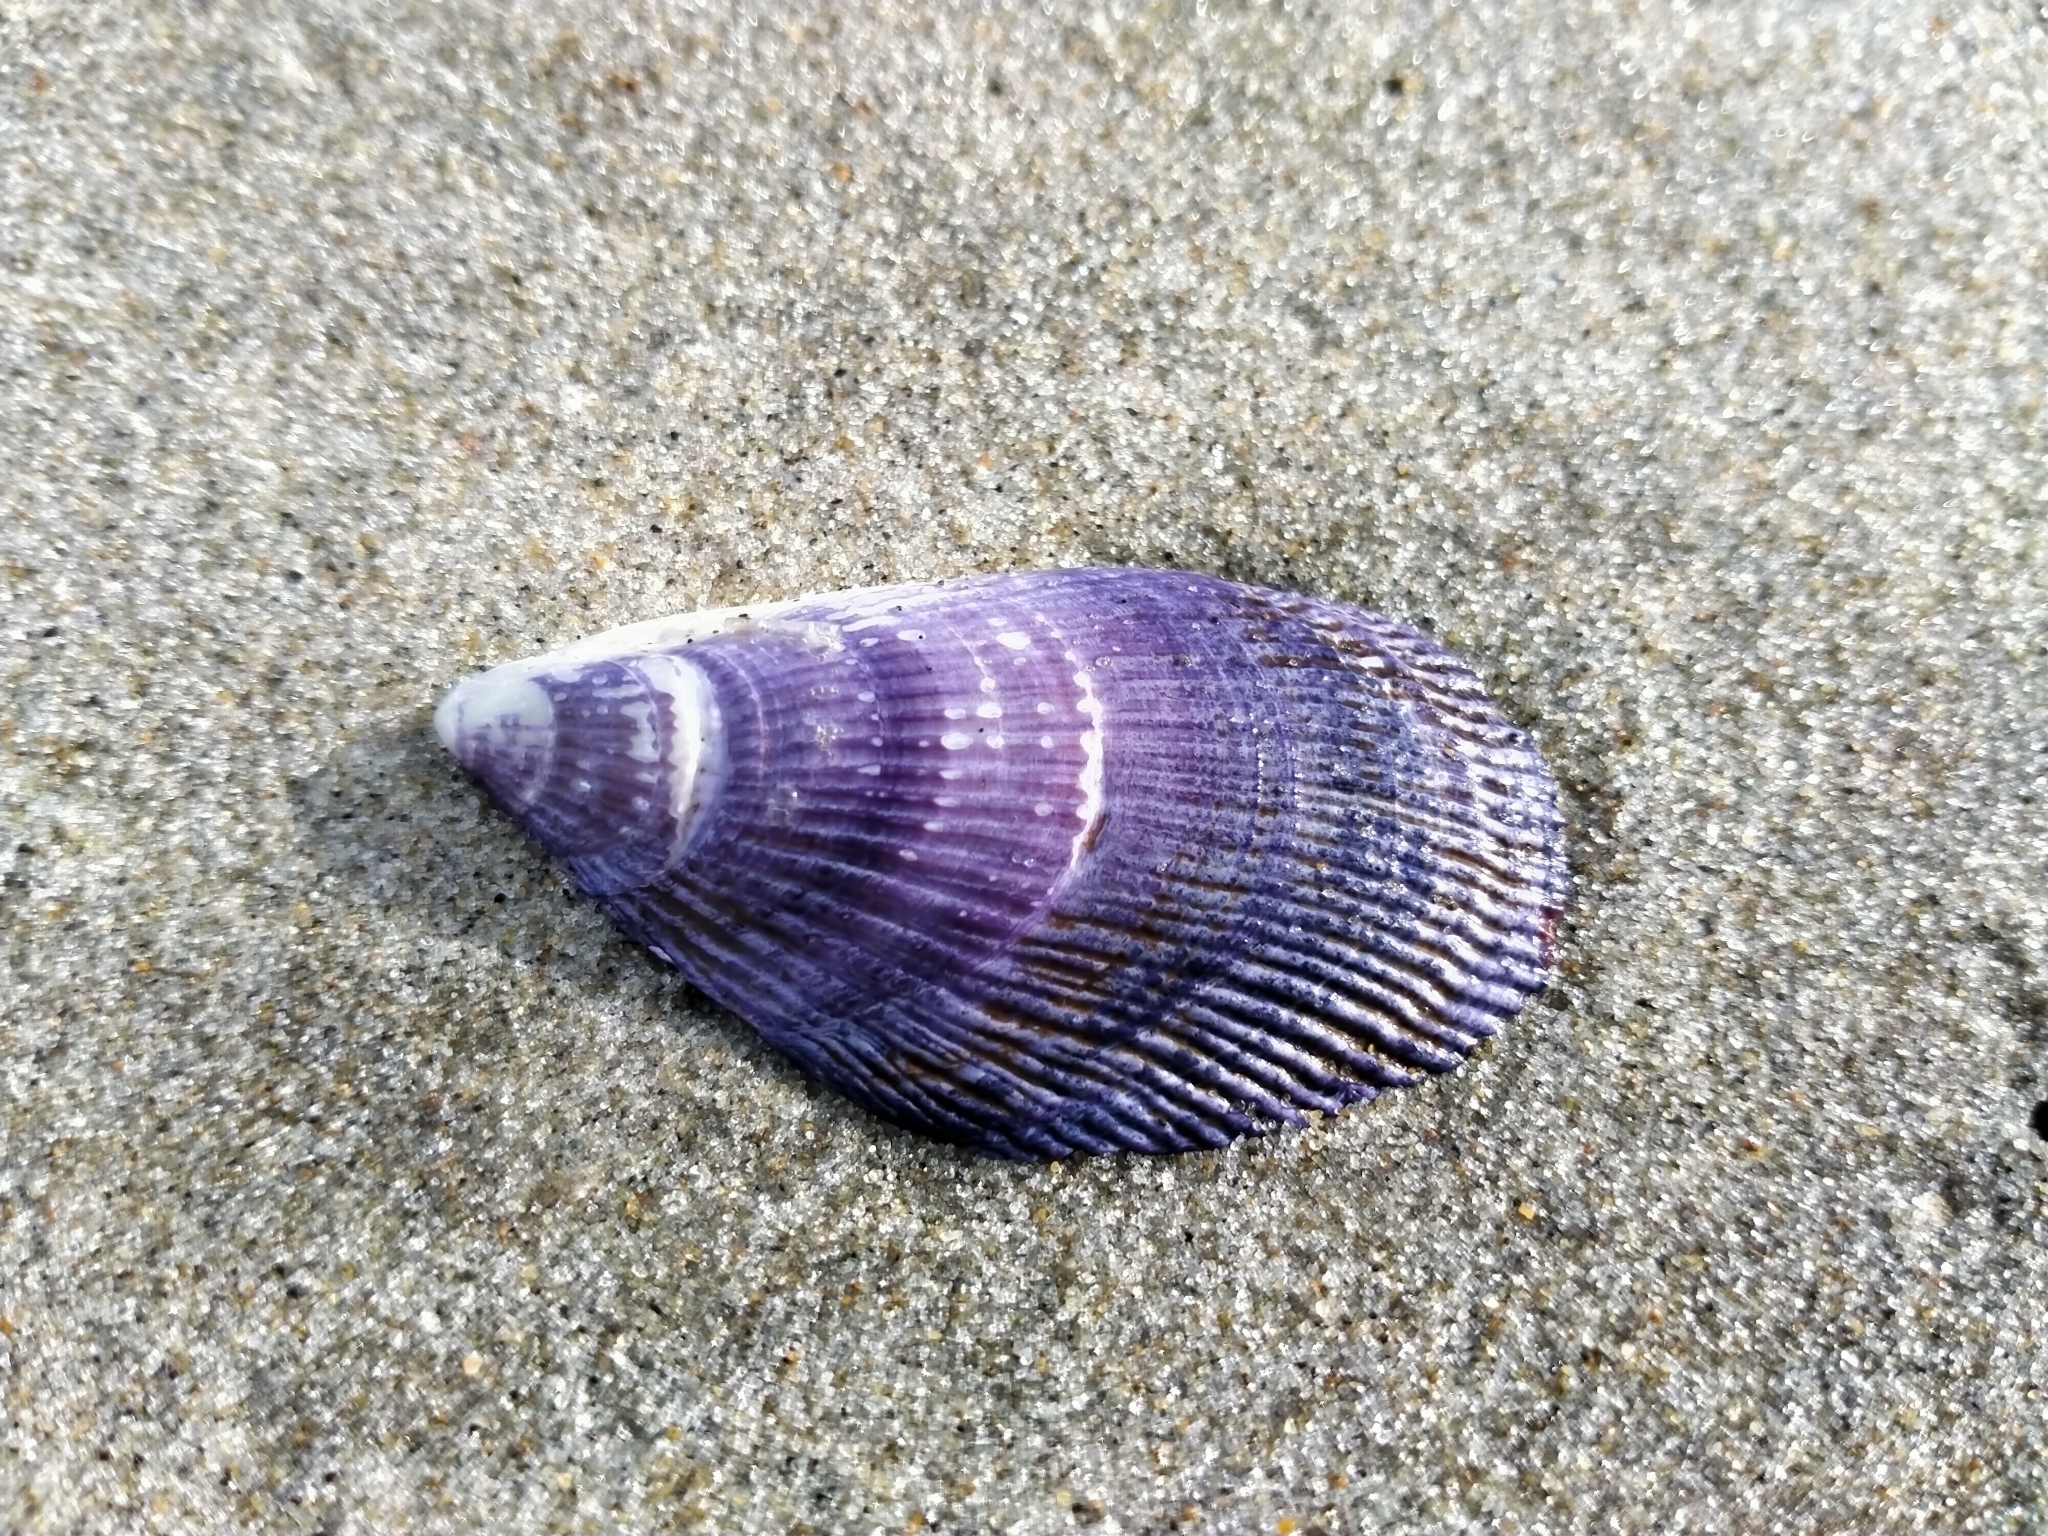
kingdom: Animalia
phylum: Mollusca
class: Bivalvia
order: Mytilida
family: Mytilidae
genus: Aulacomya
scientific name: Aulacomya maoriana
